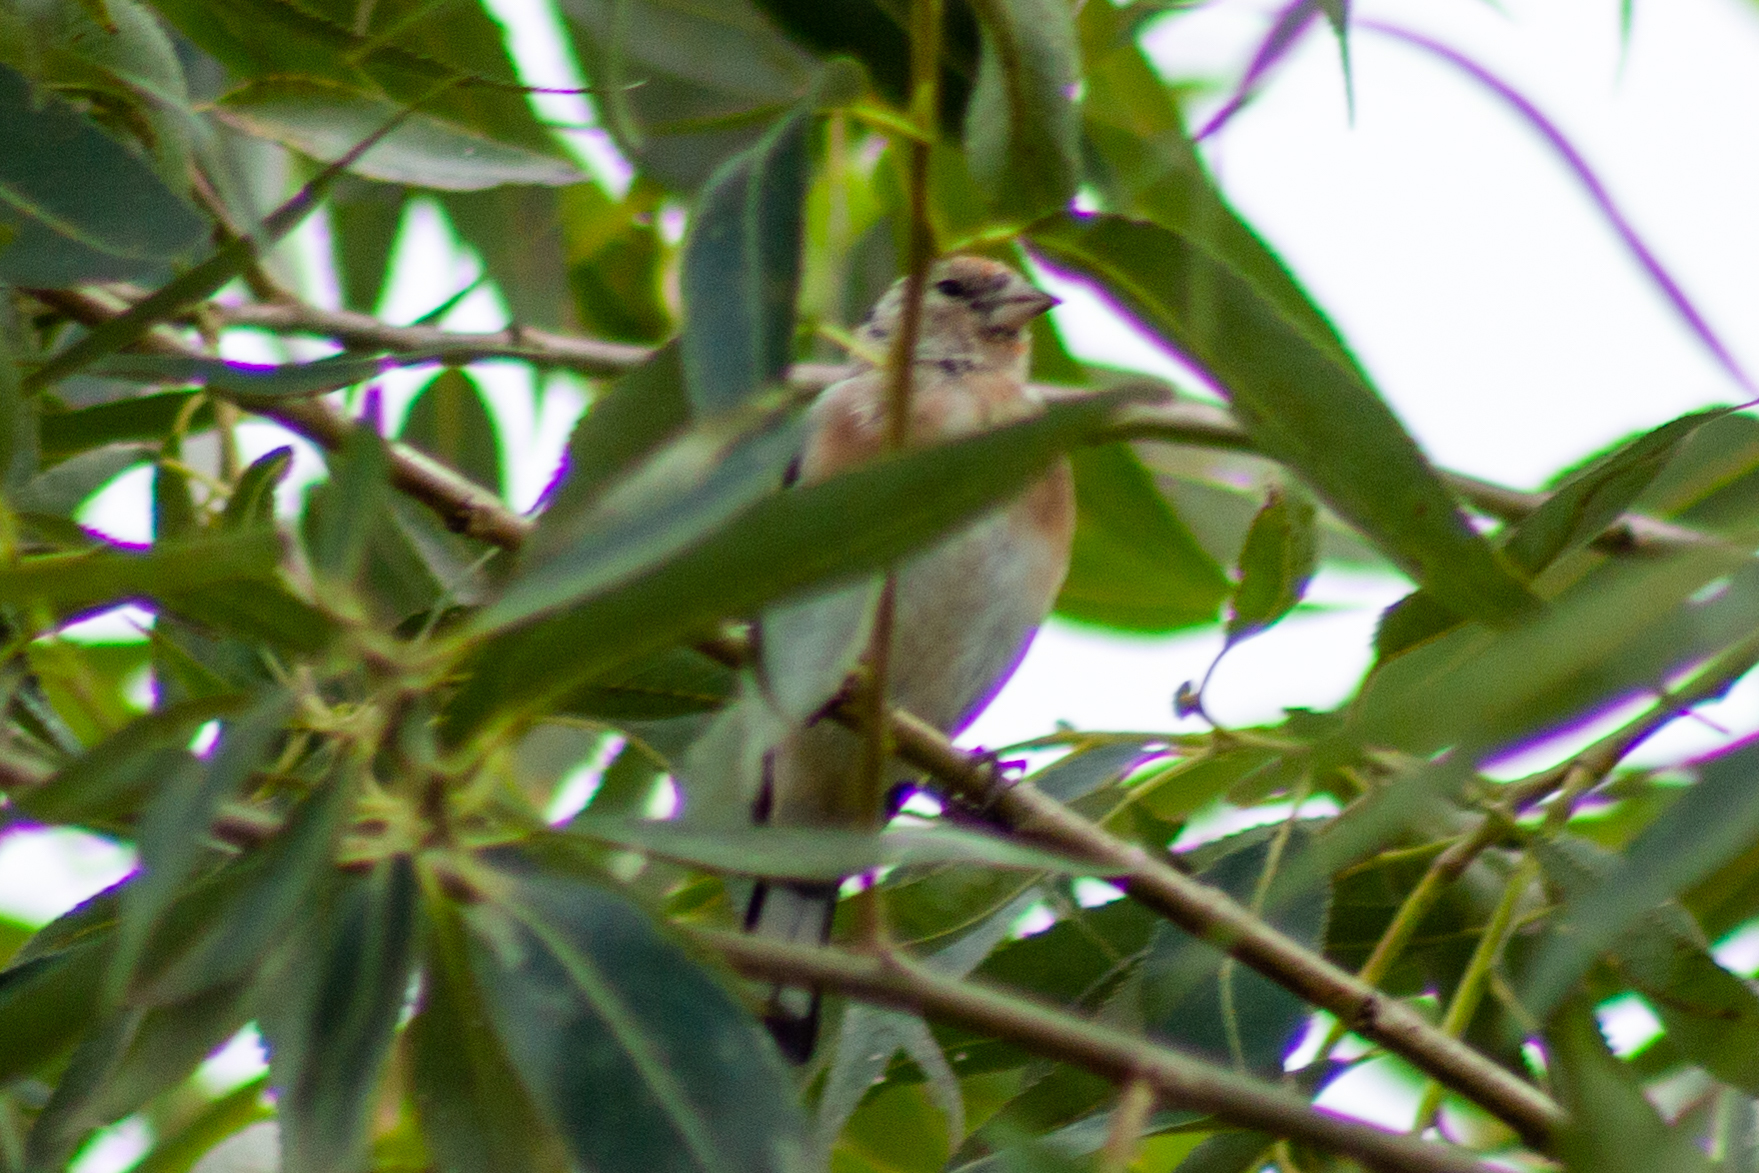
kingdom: Animalia
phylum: Chordata
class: Aves
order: Passeriformes
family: Fringillidae
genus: Linaria
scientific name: Linaria cannabina
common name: Common linnet
